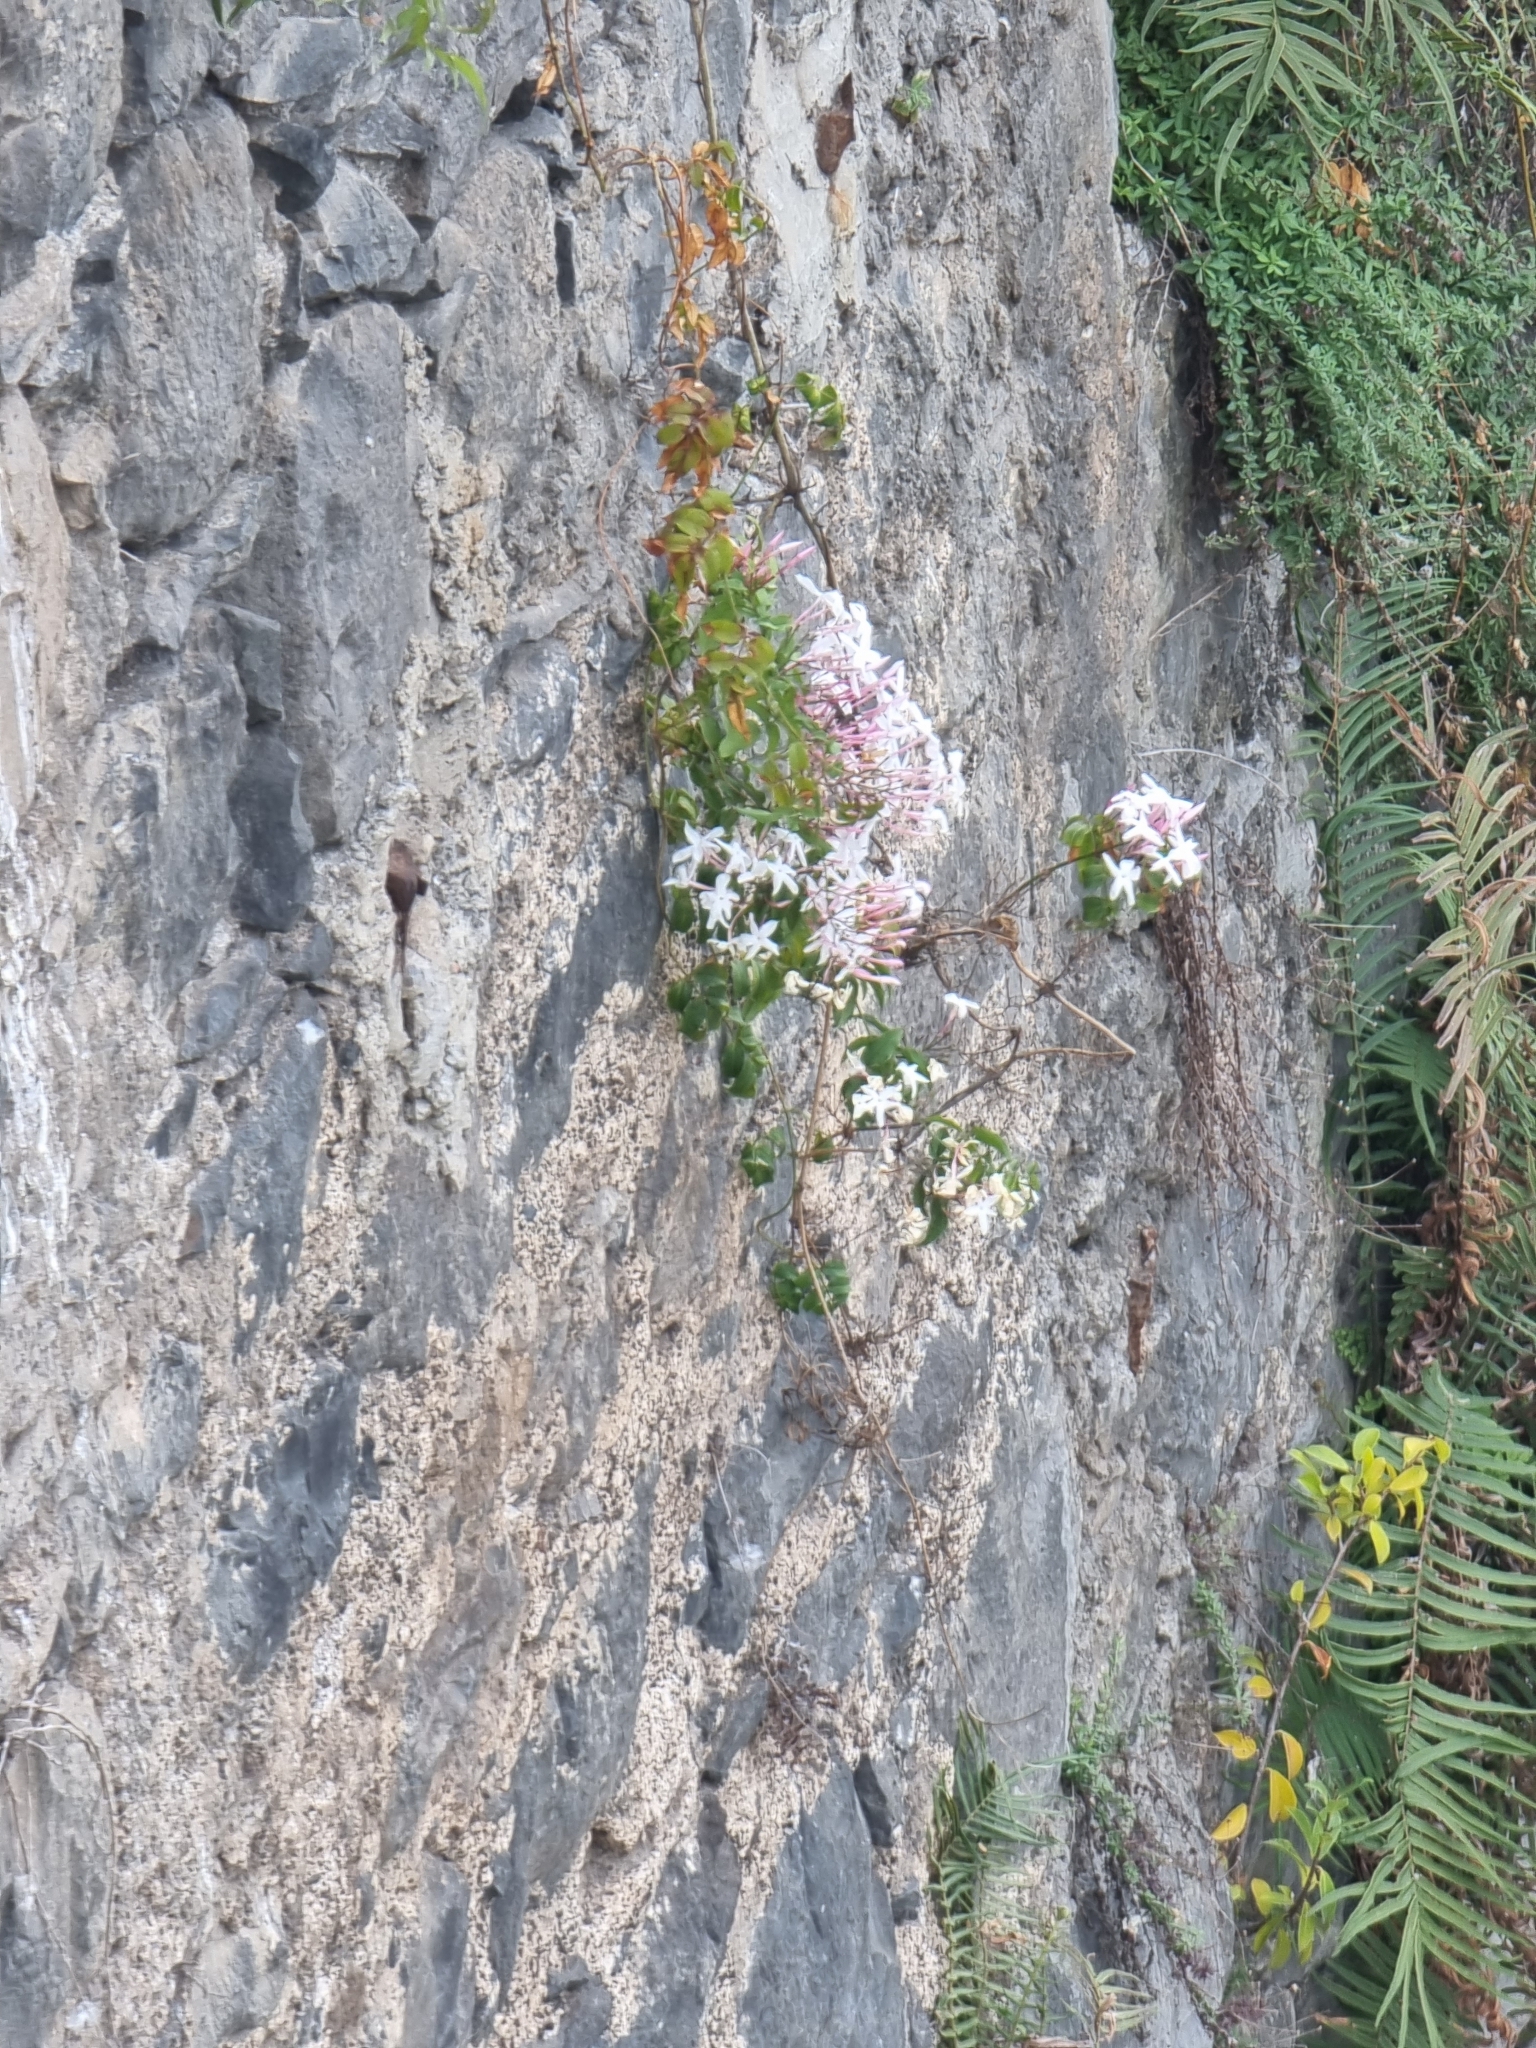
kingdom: Plantae
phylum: Tracheophyta
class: Magnoliopsida
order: Lamiales
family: Oleaceae
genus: Jasminum
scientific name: Jasminum polyanthum
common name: Pink jasmine
